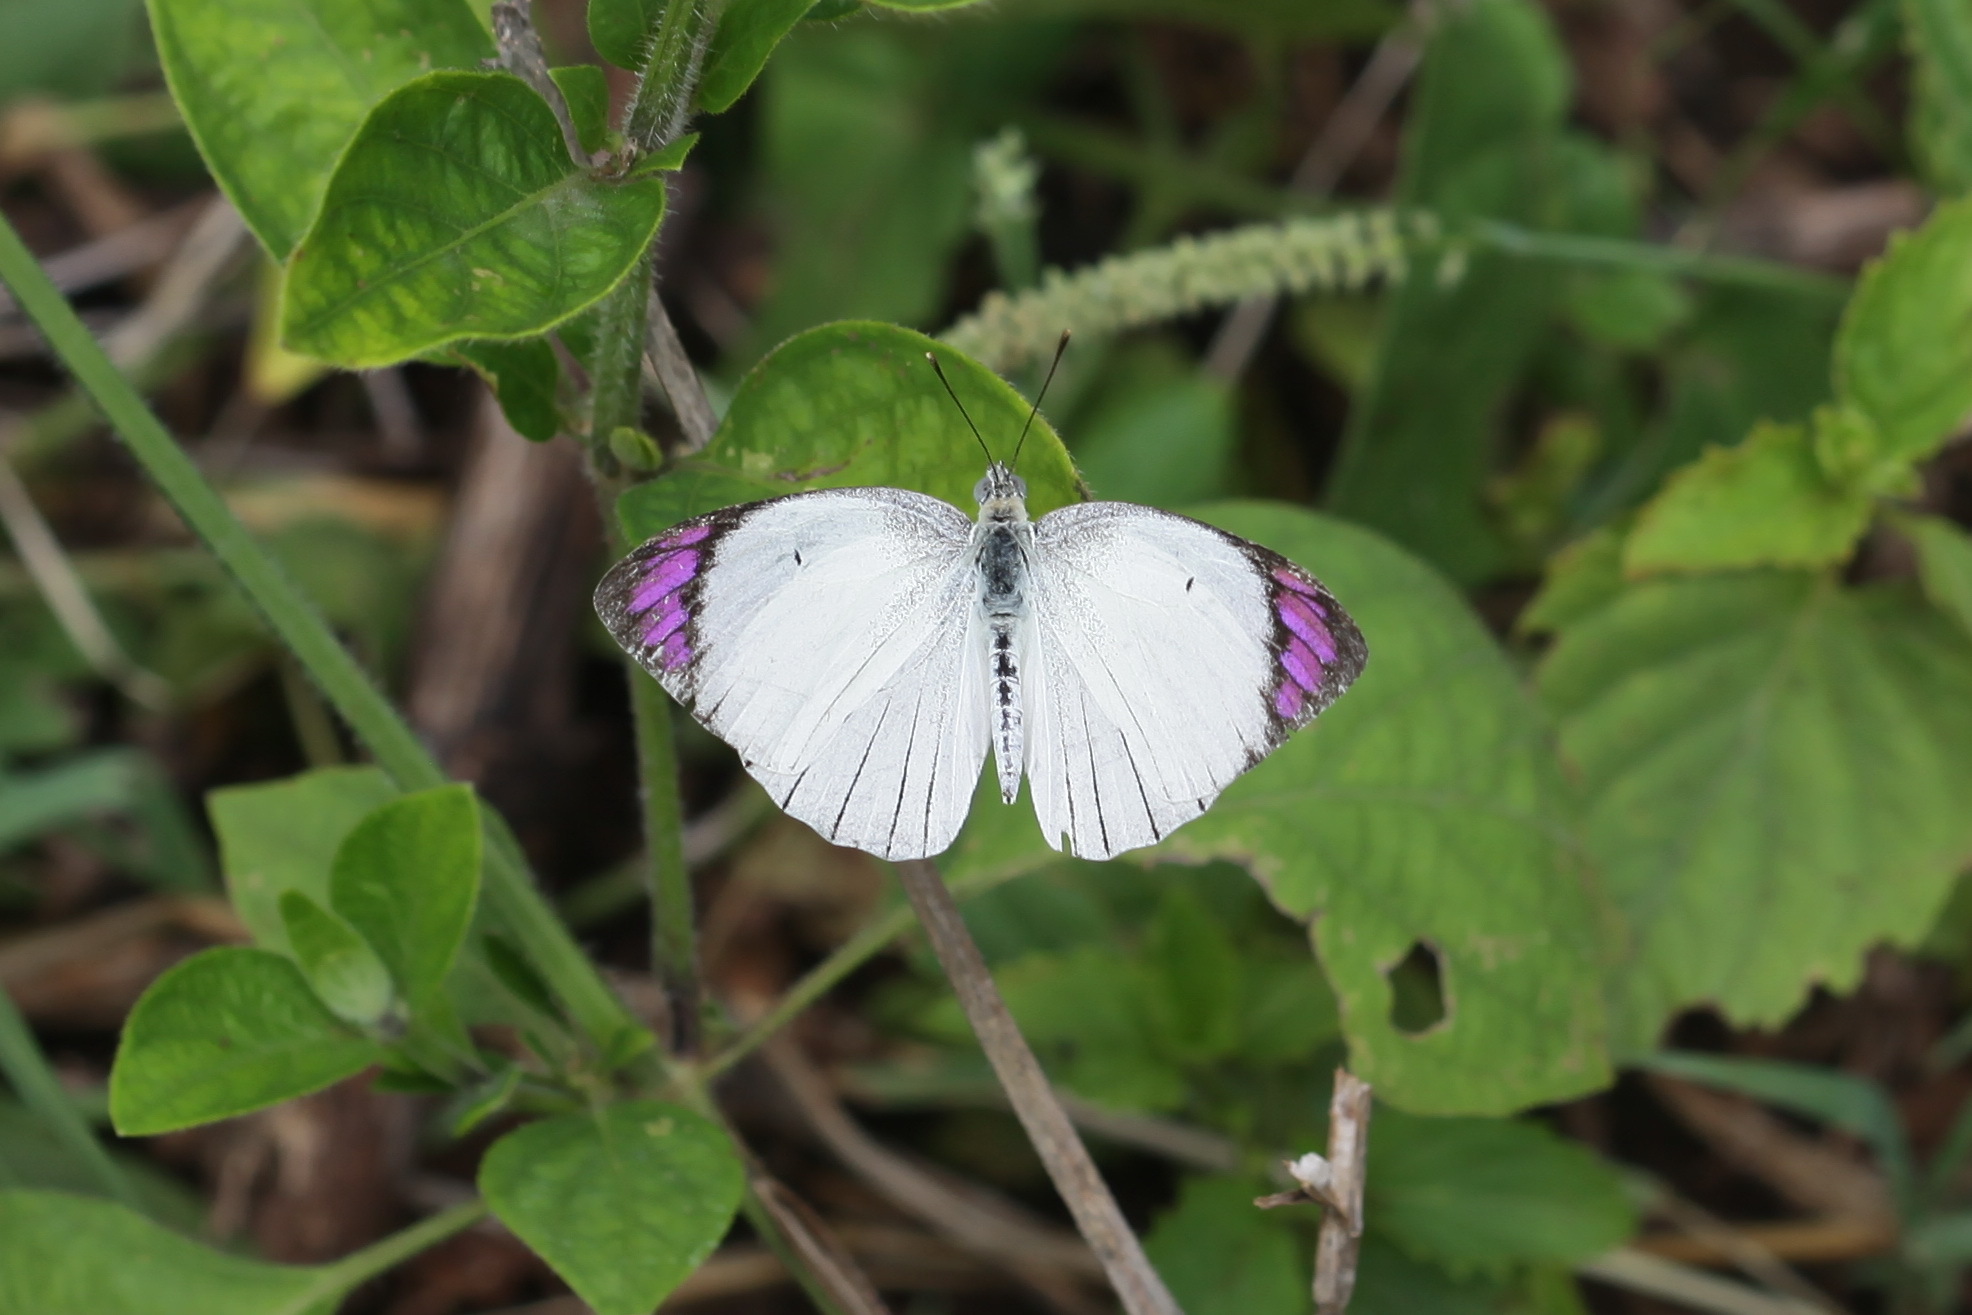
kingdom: Animalia
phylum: Arthropoda
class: Insecta
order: Lepidoptera
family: Pieridae
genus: Colotis
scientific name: Colotis ione
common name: Bushveld purple tip
